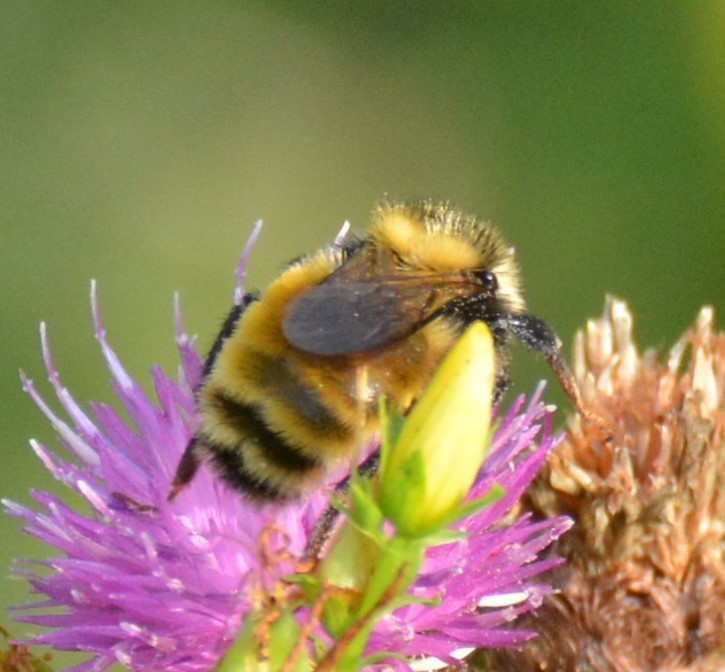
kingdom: Animalia
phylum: Arthropoda
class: Insecta
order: Hymenoptera
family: Apidae
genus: Bombus
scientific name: Bombus borealis
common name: Northern amber bumble bee
